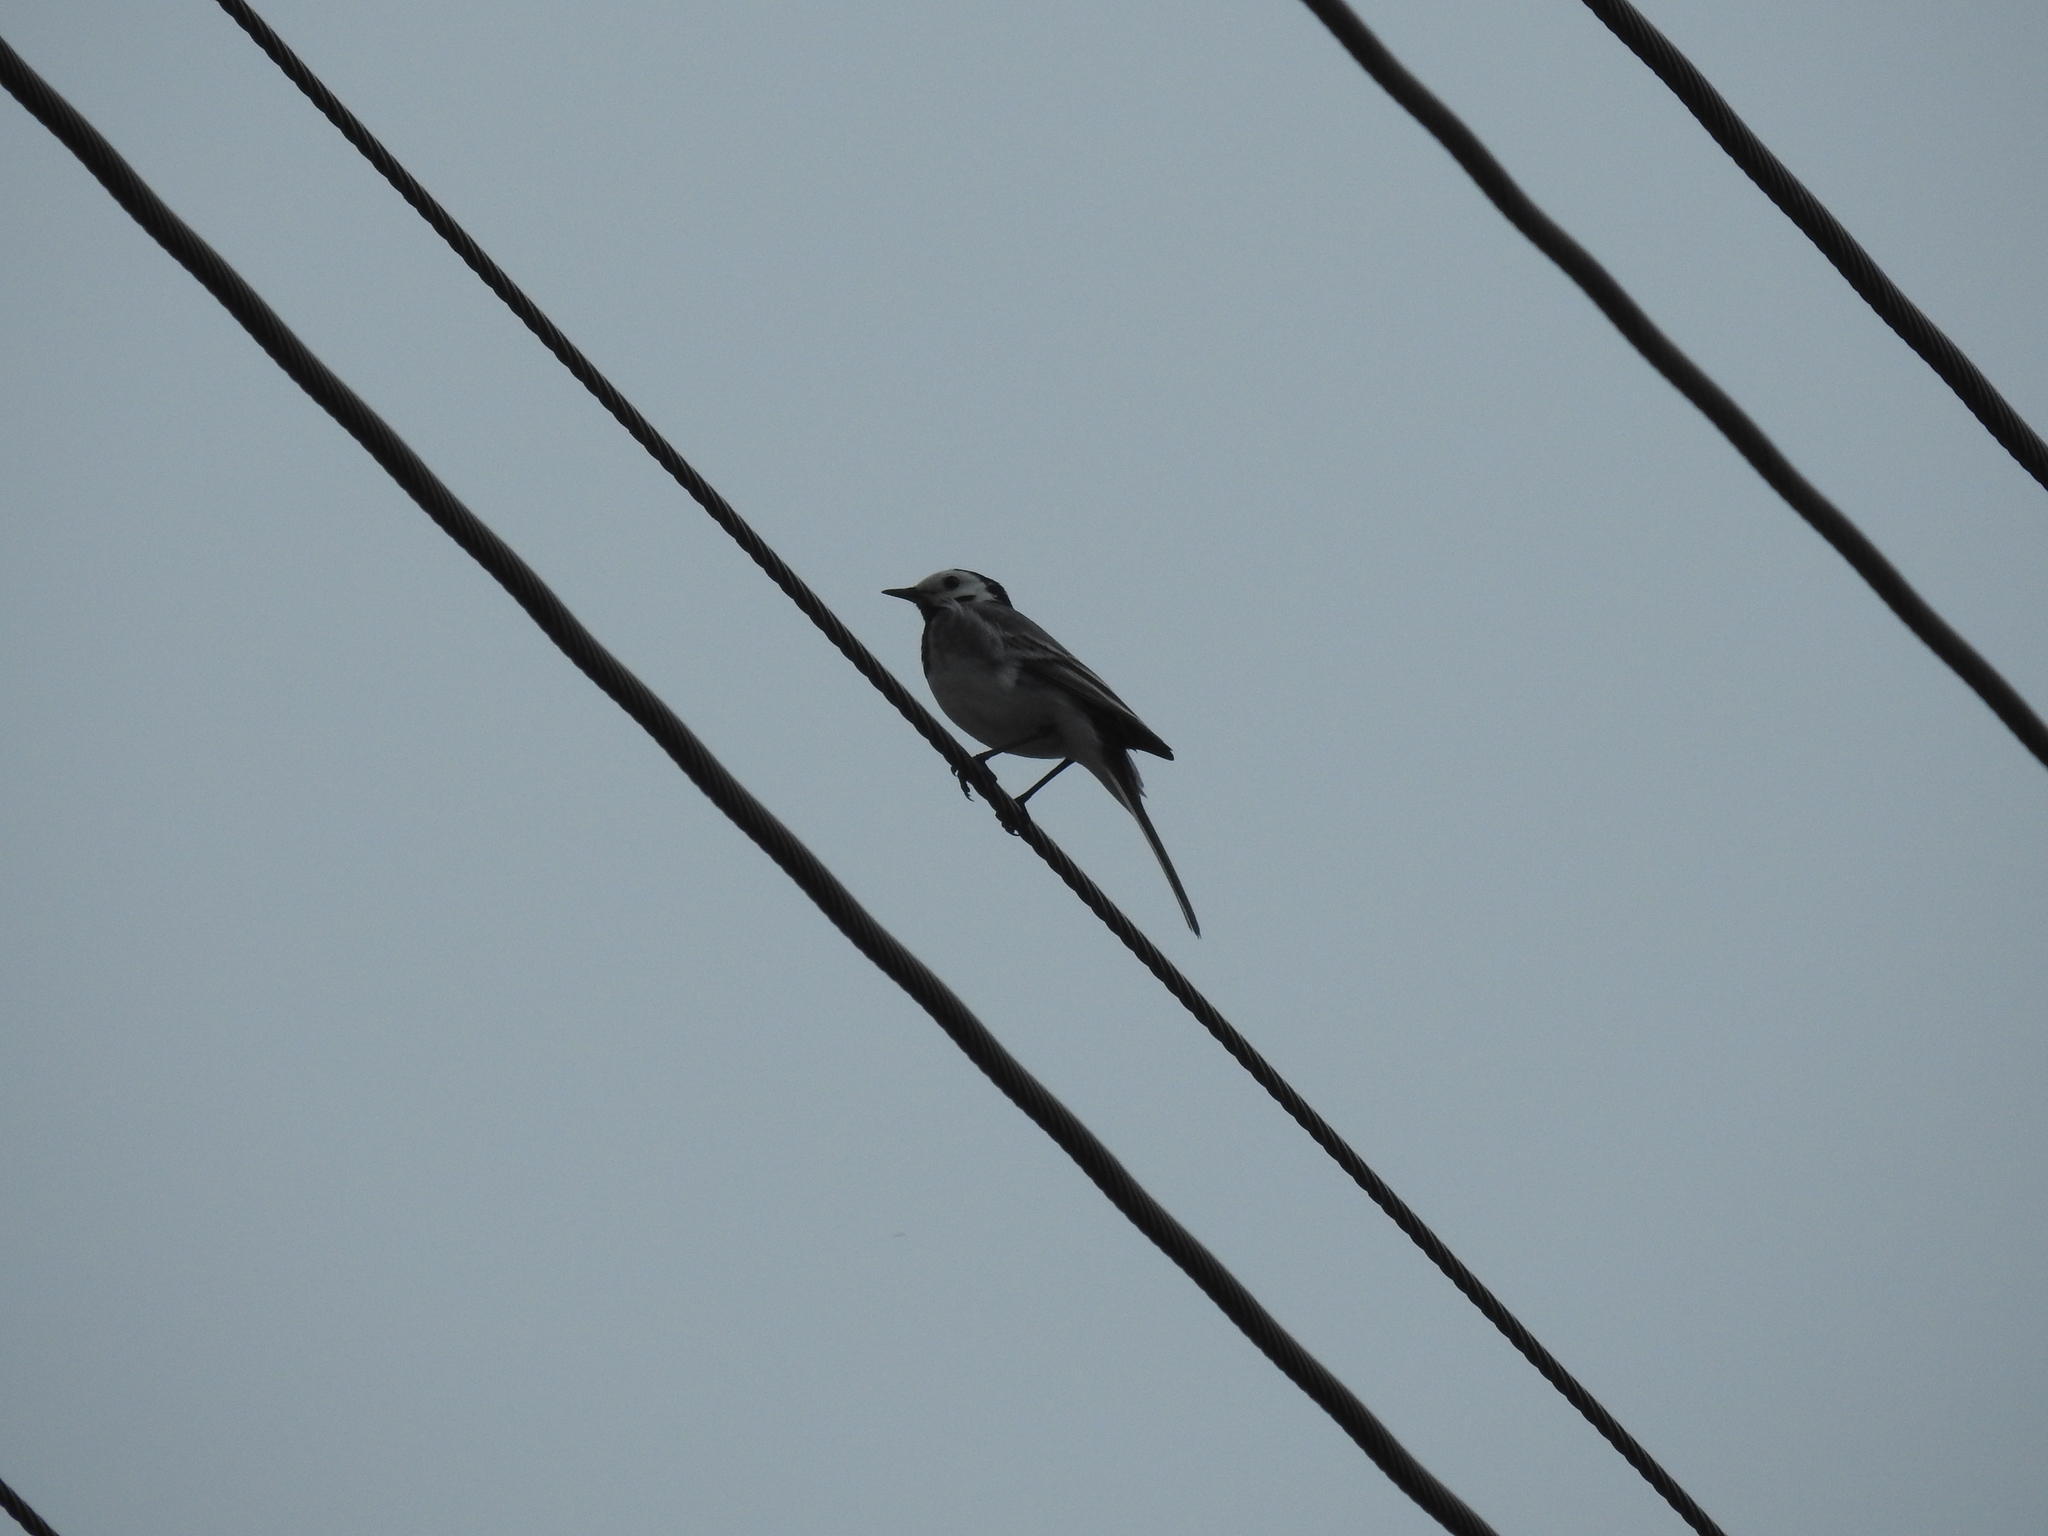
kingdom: Animalia
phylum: Chordata
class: Aves
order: Passeriformes
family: Motacillidae
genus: Motacilla
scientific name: Motacilla alba
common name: White wagtail
